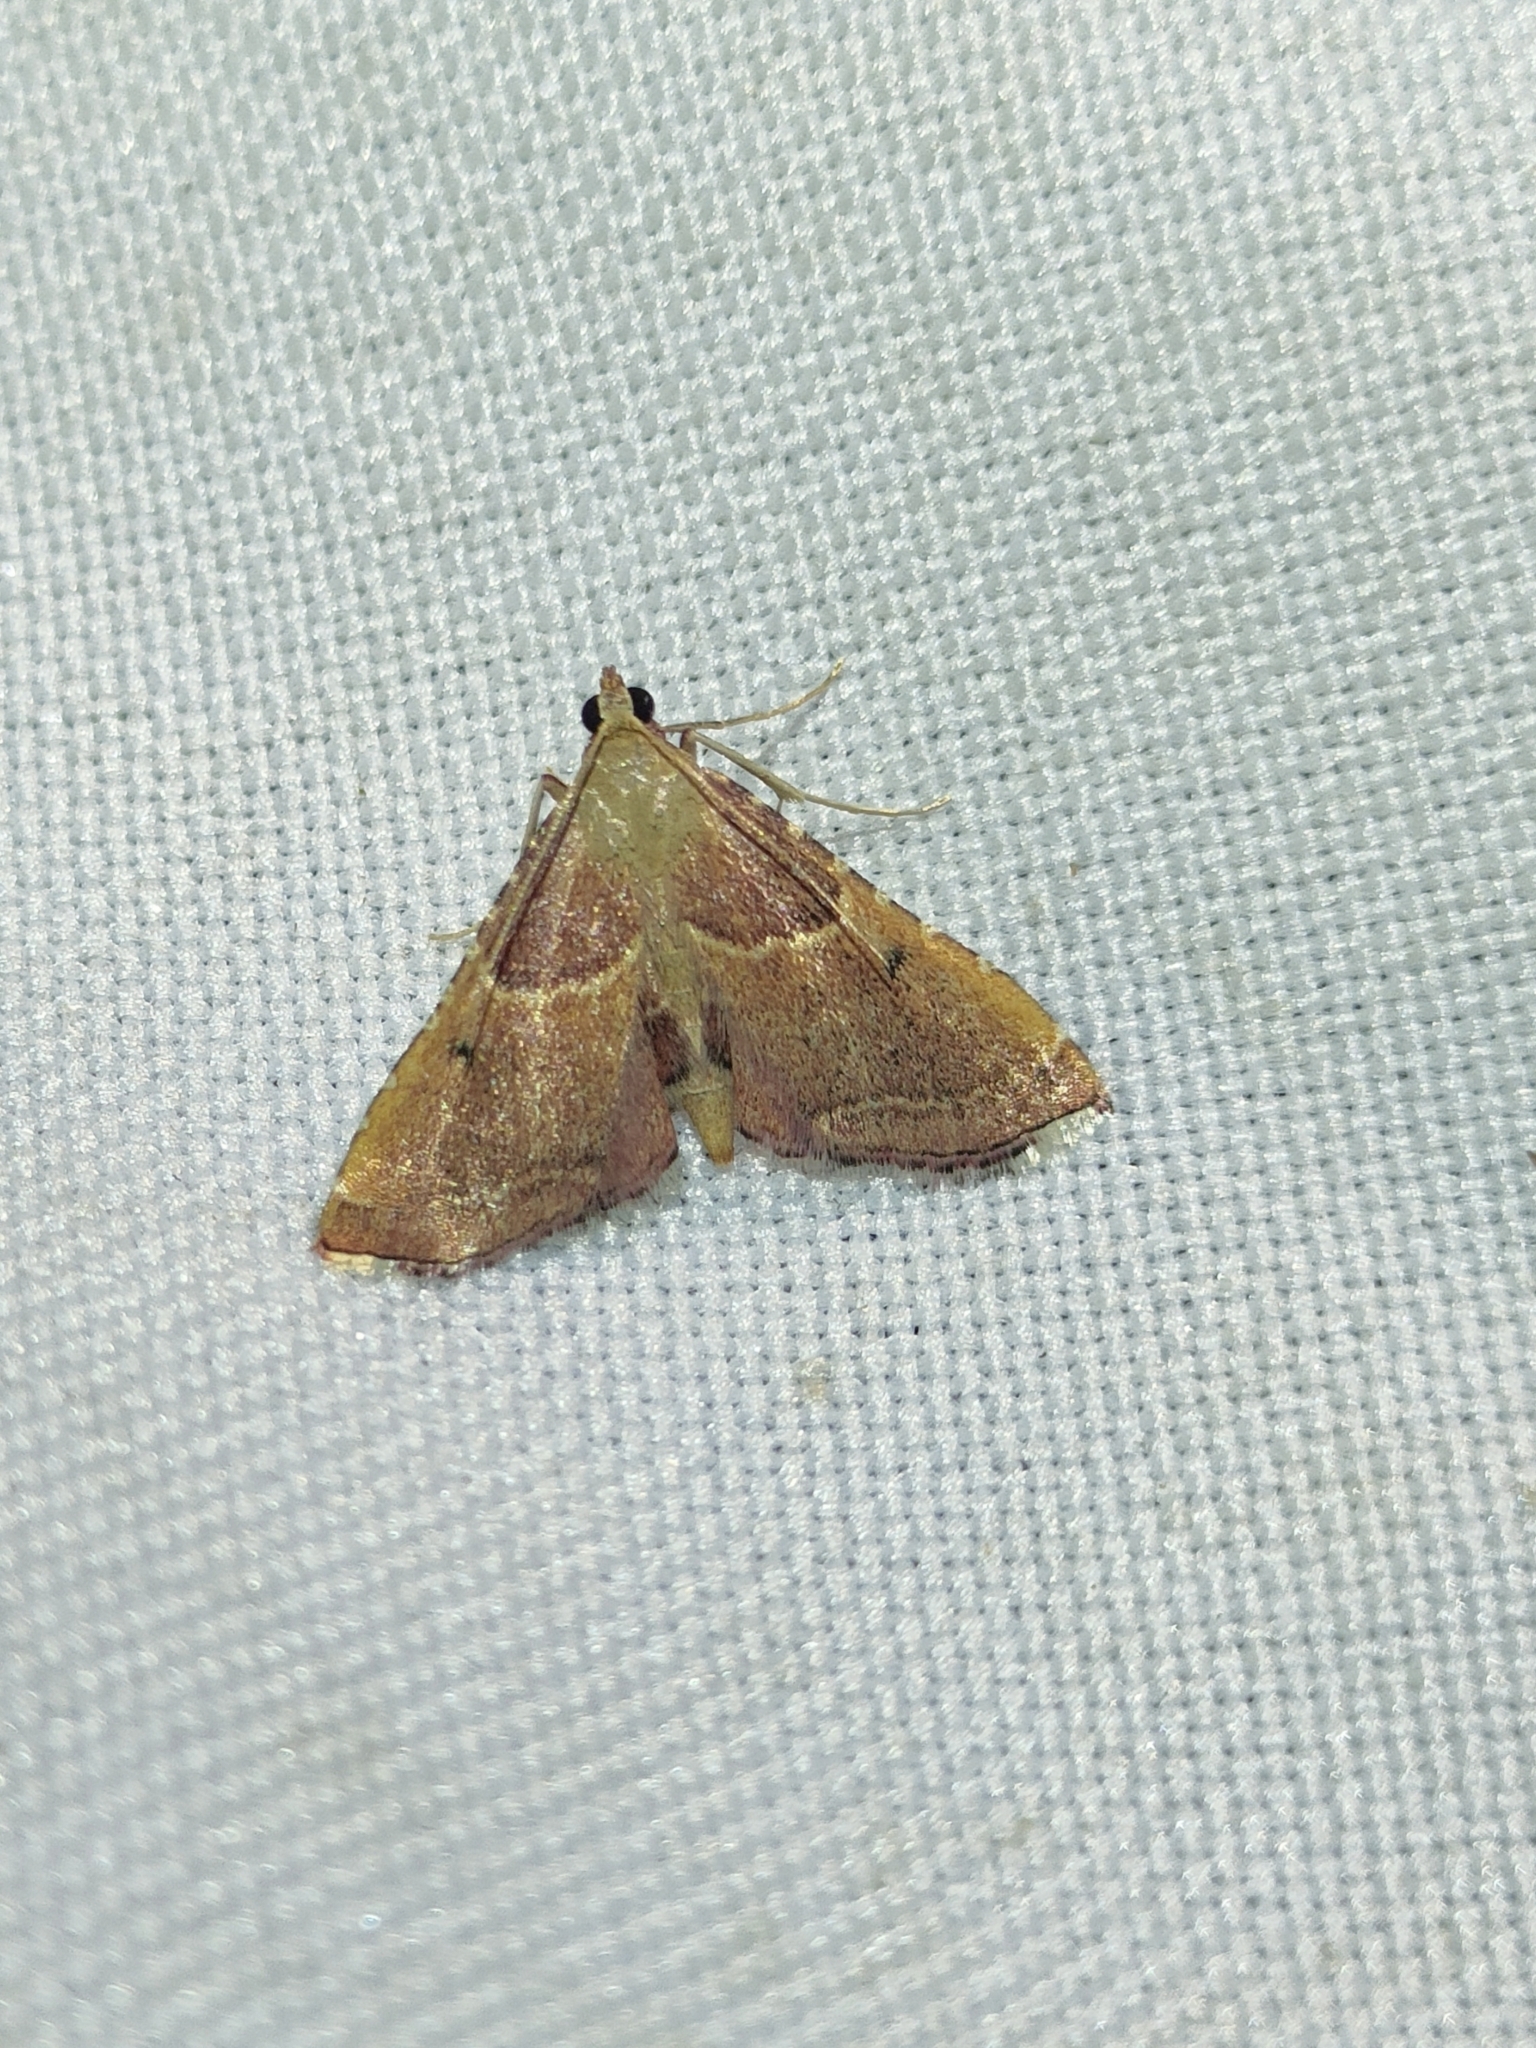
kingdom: Animalia
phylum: Arthropoda
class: Insecta
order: Lepidoptera
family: Pyralidae
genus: Endotricha
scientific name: Endotricha flammealis
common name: Rosy tabby
